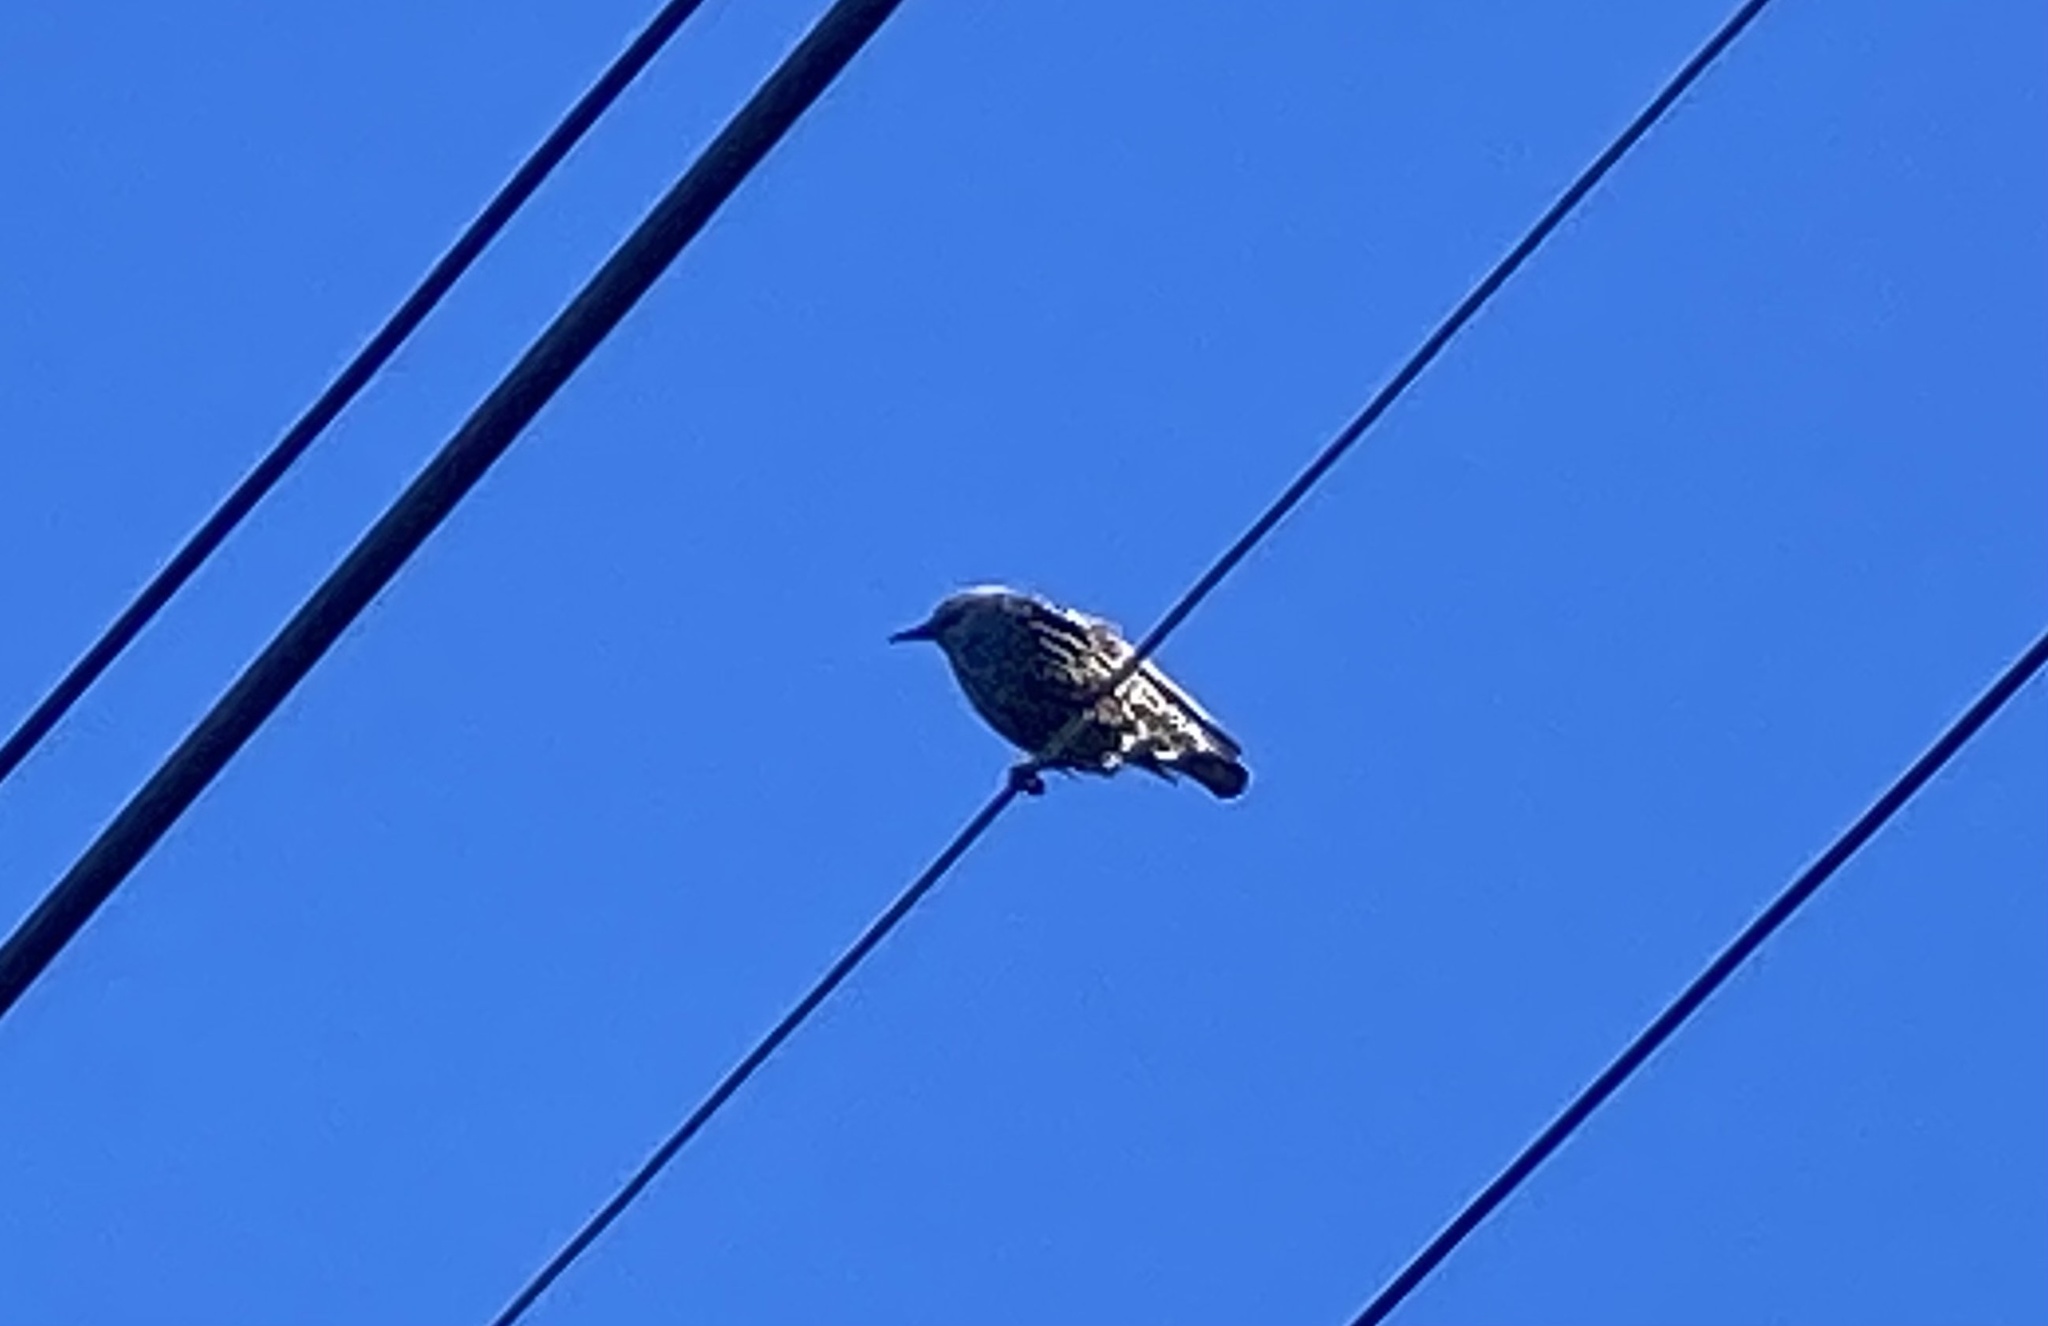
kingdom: Animalia
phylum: Chordata
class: Aves
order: Passeriformes
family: Sturnidae
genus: Sturnus
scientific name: Sturnus vulgaris
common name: Common starling
